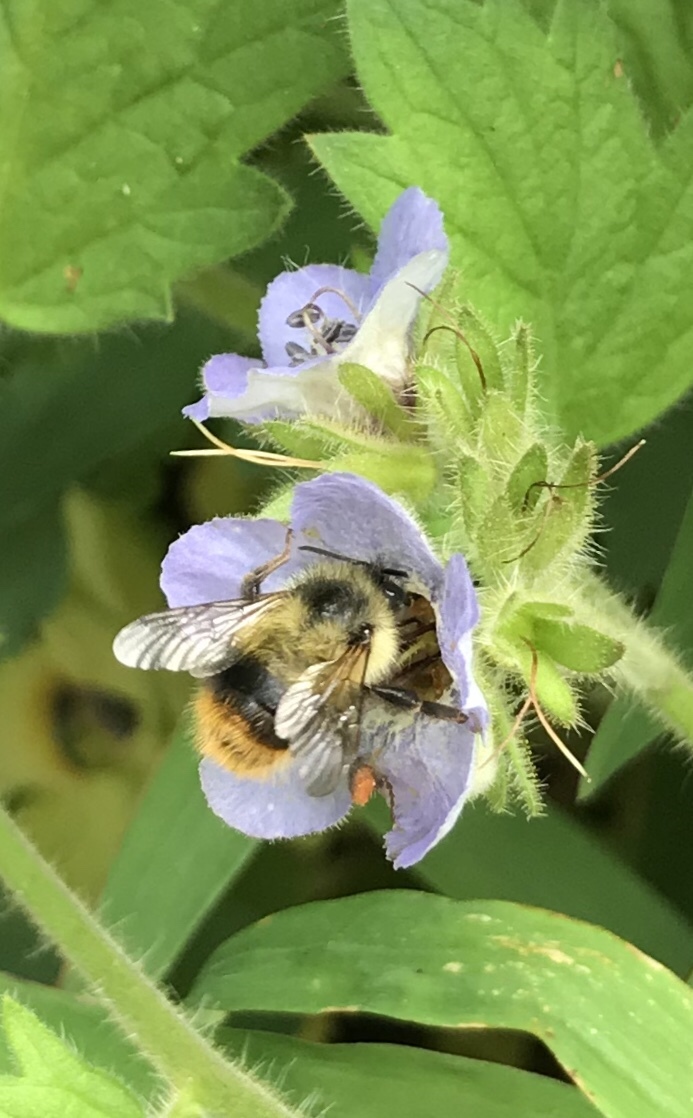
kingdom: Animalia
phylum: Arthropoda
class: Insecta
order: Hymenoptera
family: Apidae
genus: Bombus
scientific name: Bombus mixtus
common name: Fuzzy-horned bumble bee
